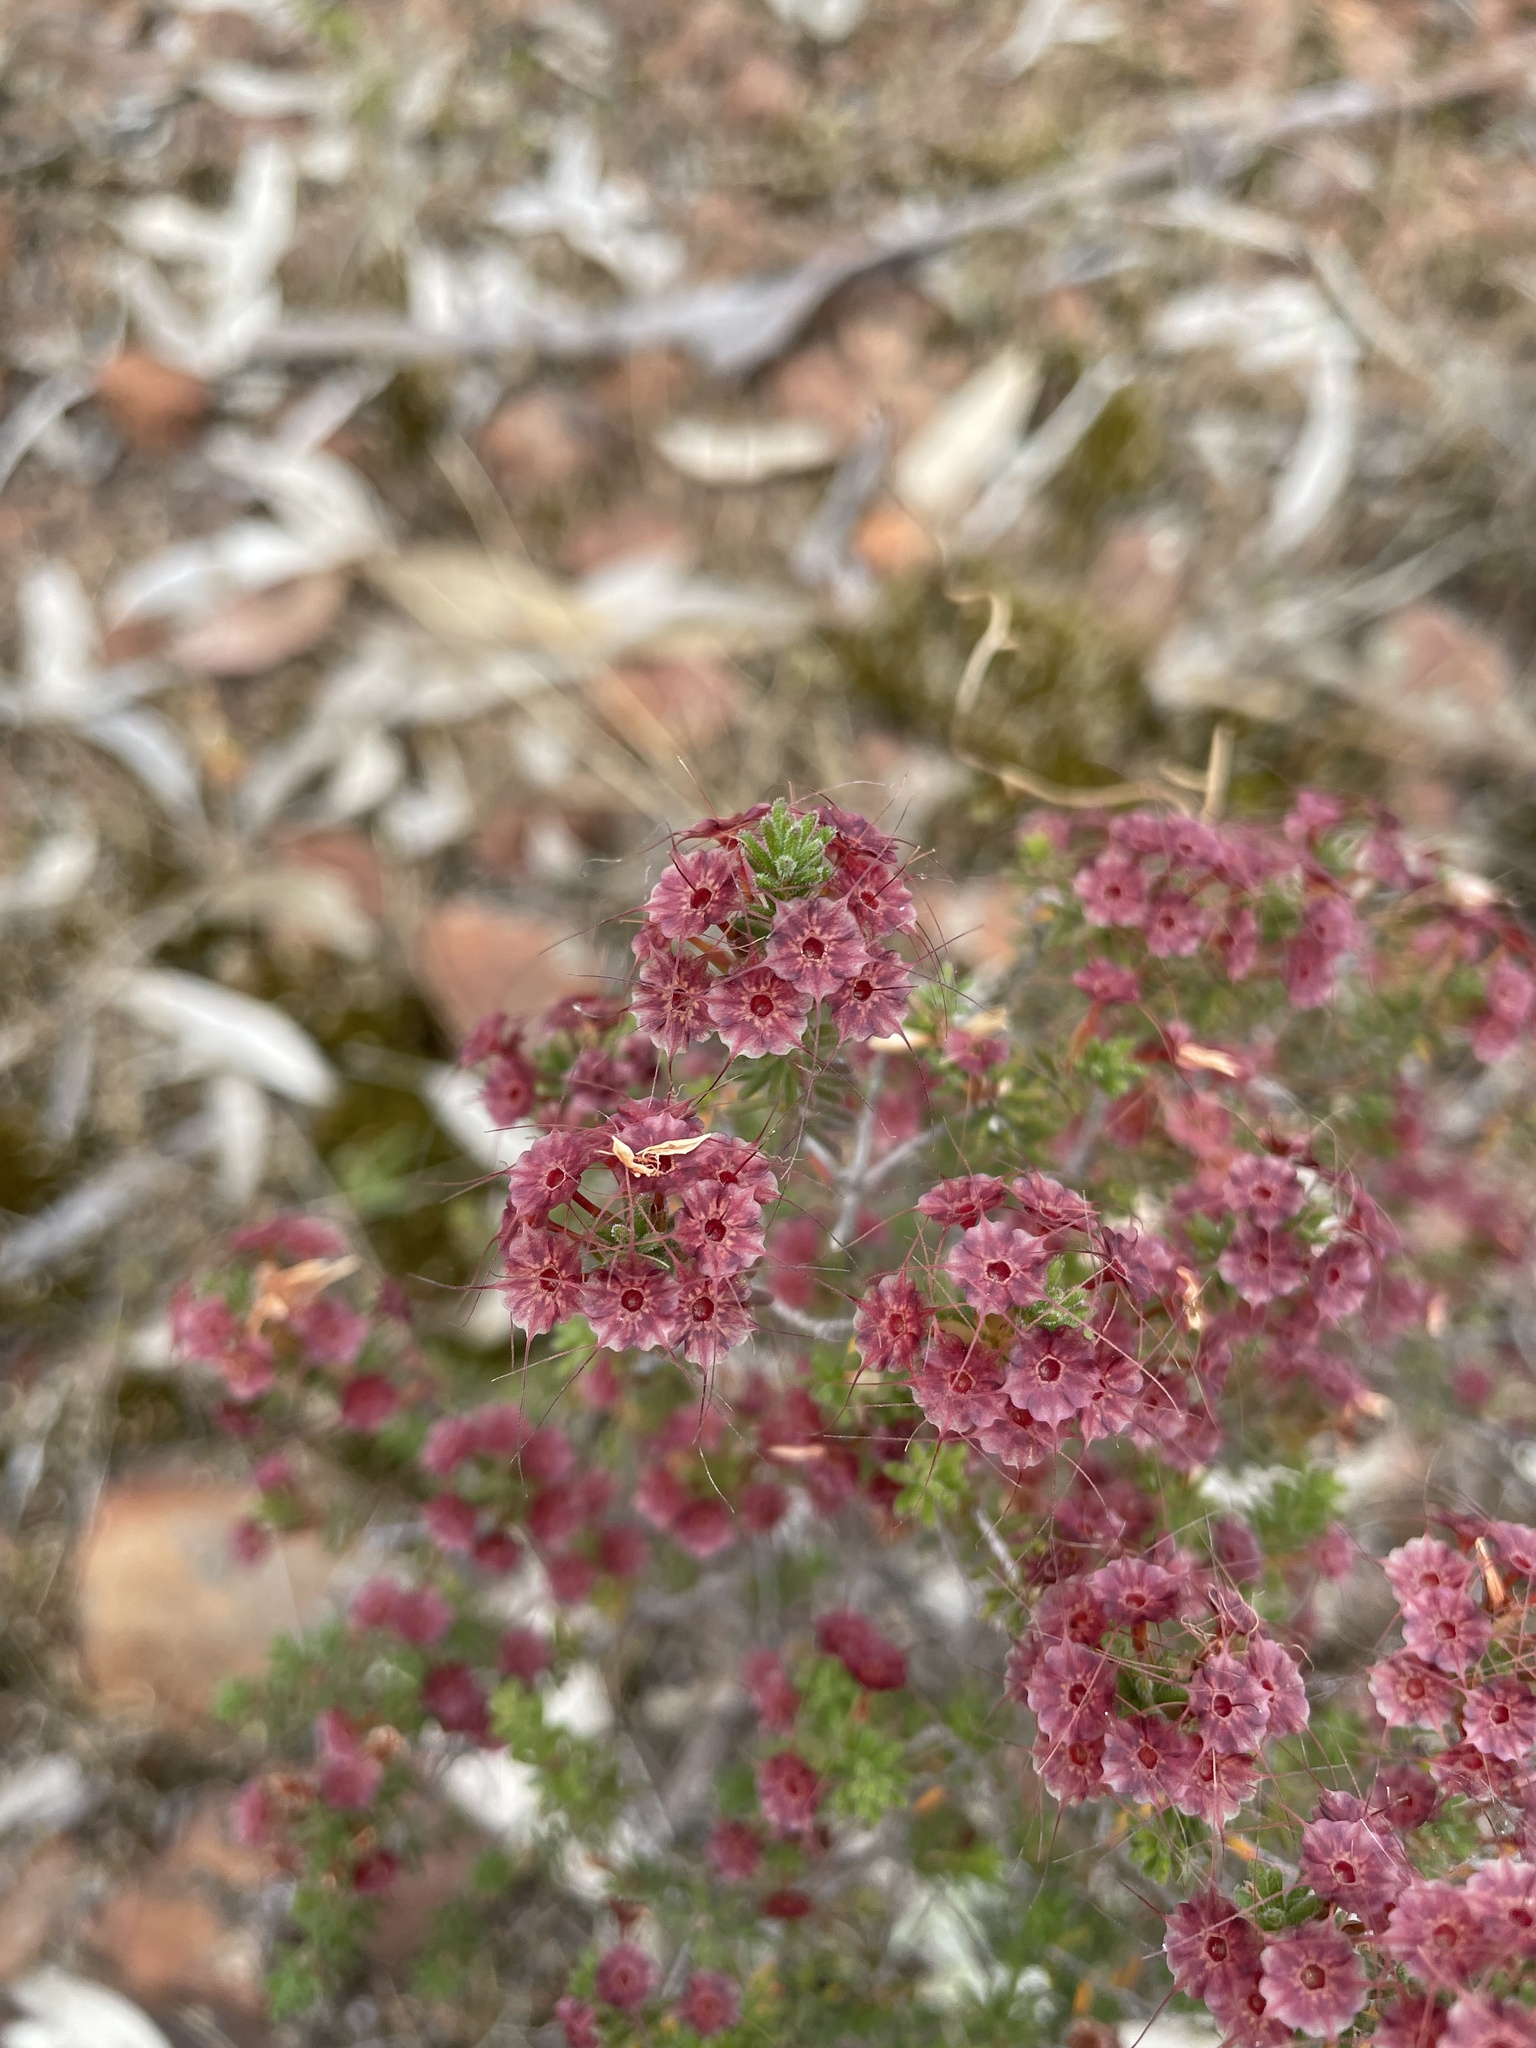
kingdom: Plantae
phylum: Tracheophyta
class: Magnoliopsida
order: Myrtales
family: Myrtaceae
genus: Calytrix
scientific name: Calytrix tetragona
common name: Common fringe myrtle
